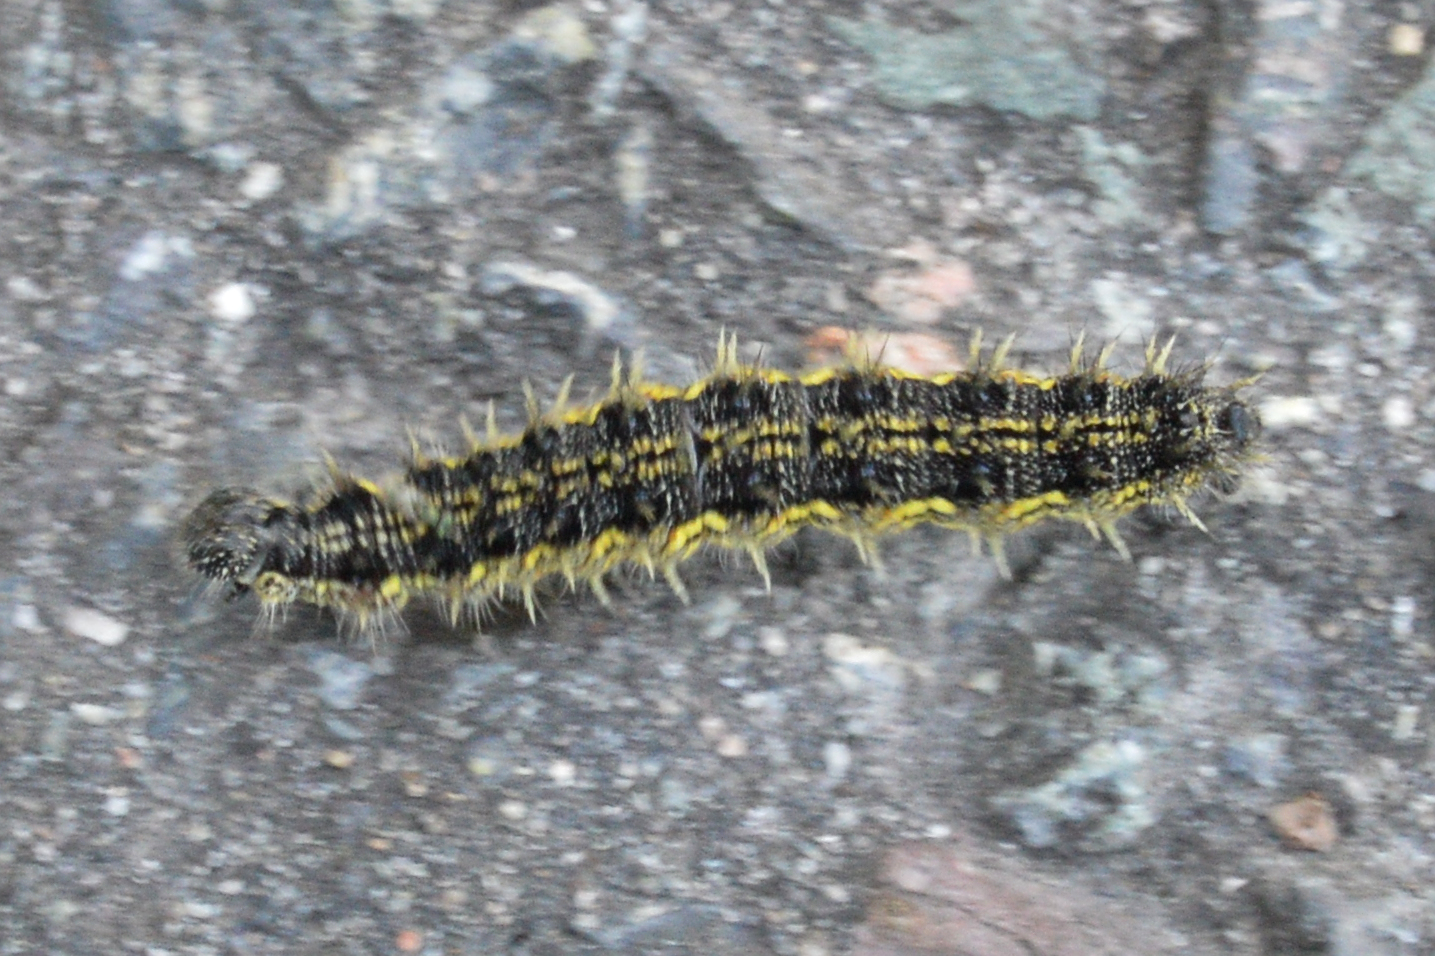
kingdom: Animalia
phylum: Arthropoda
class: Insecta
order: Lepidoptera
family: Nymphalidae
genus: Aglais
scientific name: Aglais urticae
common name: Small tortoiseshell
